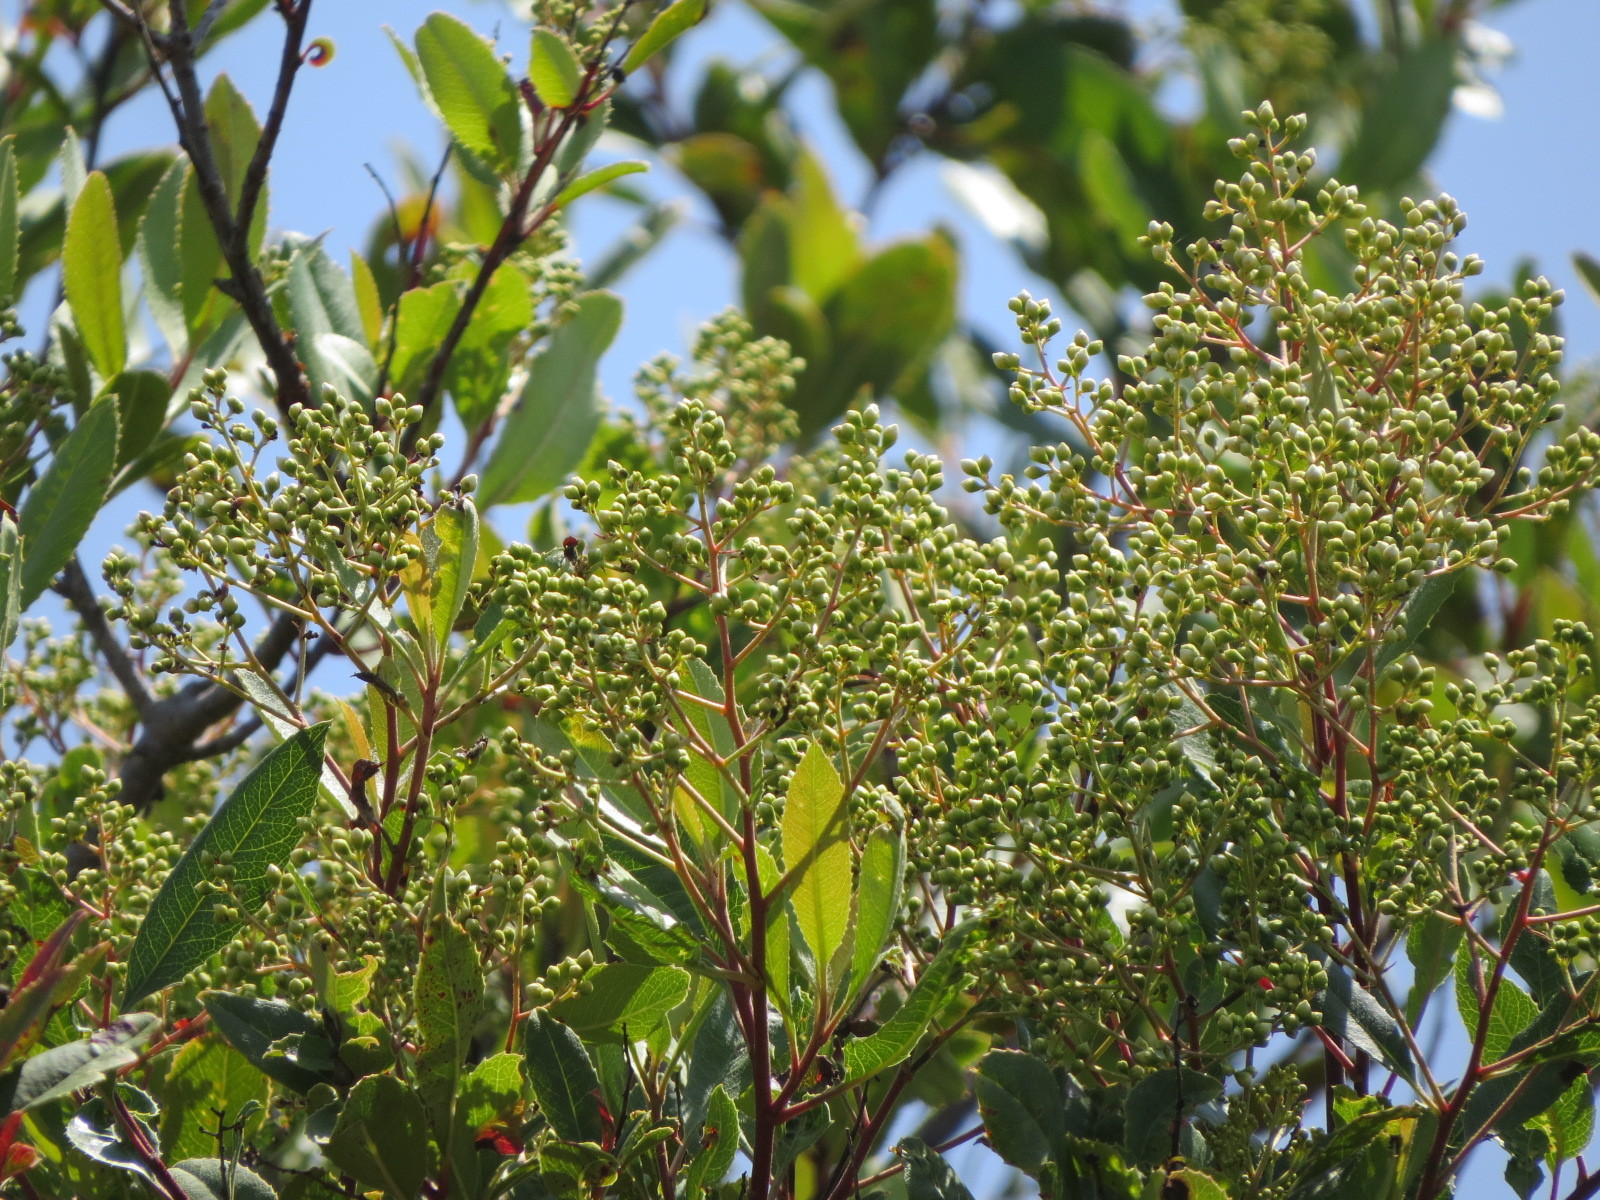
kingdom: Plantae
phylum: Tracheophyta
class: Magnoliopsida
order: Rosales
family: Rosaceae
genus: Heteromeles
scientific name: Heteromeles arbutifolia
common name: California-holly
